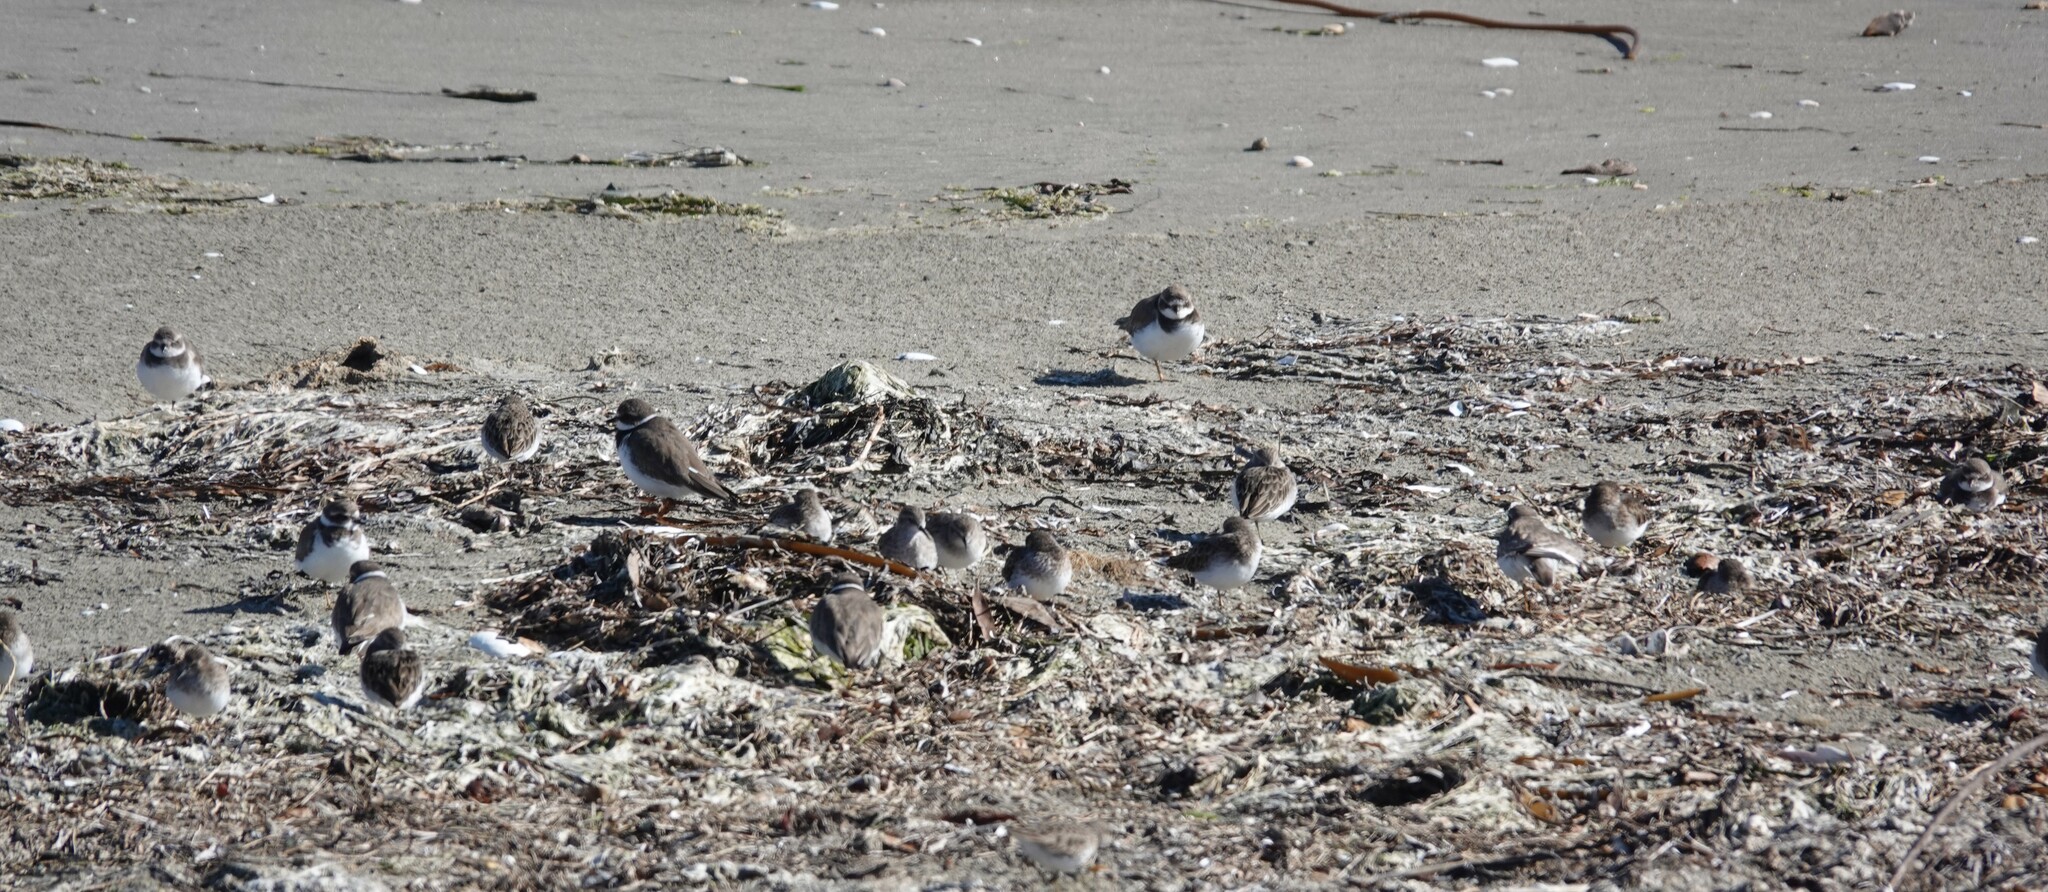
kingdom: Animalia
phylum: Chordata
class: Aves
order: Charadriiformes
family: Charadriidae
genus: Anarhynchus
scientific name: Anarhynchus
